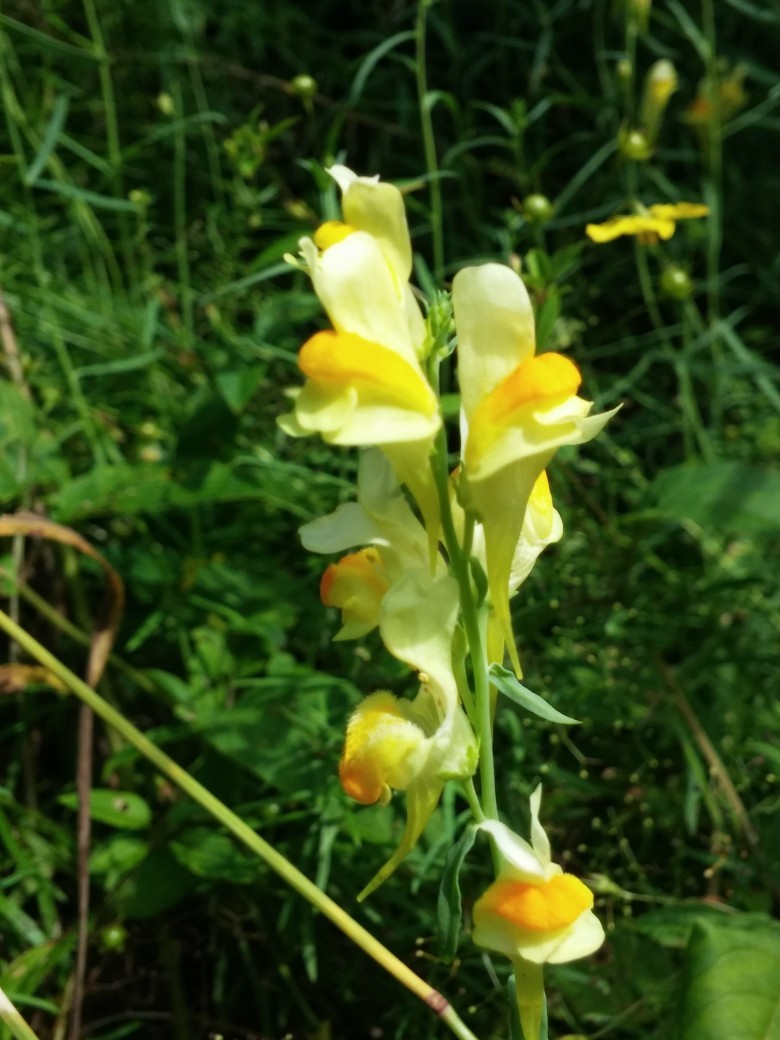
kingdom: Plantae
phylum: Tracheophyta
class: Magnoliopsida
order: Lamiales
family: Plantaginaceae
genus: Linaria
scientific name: Linaria vulgaris
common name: Butter and eggs
